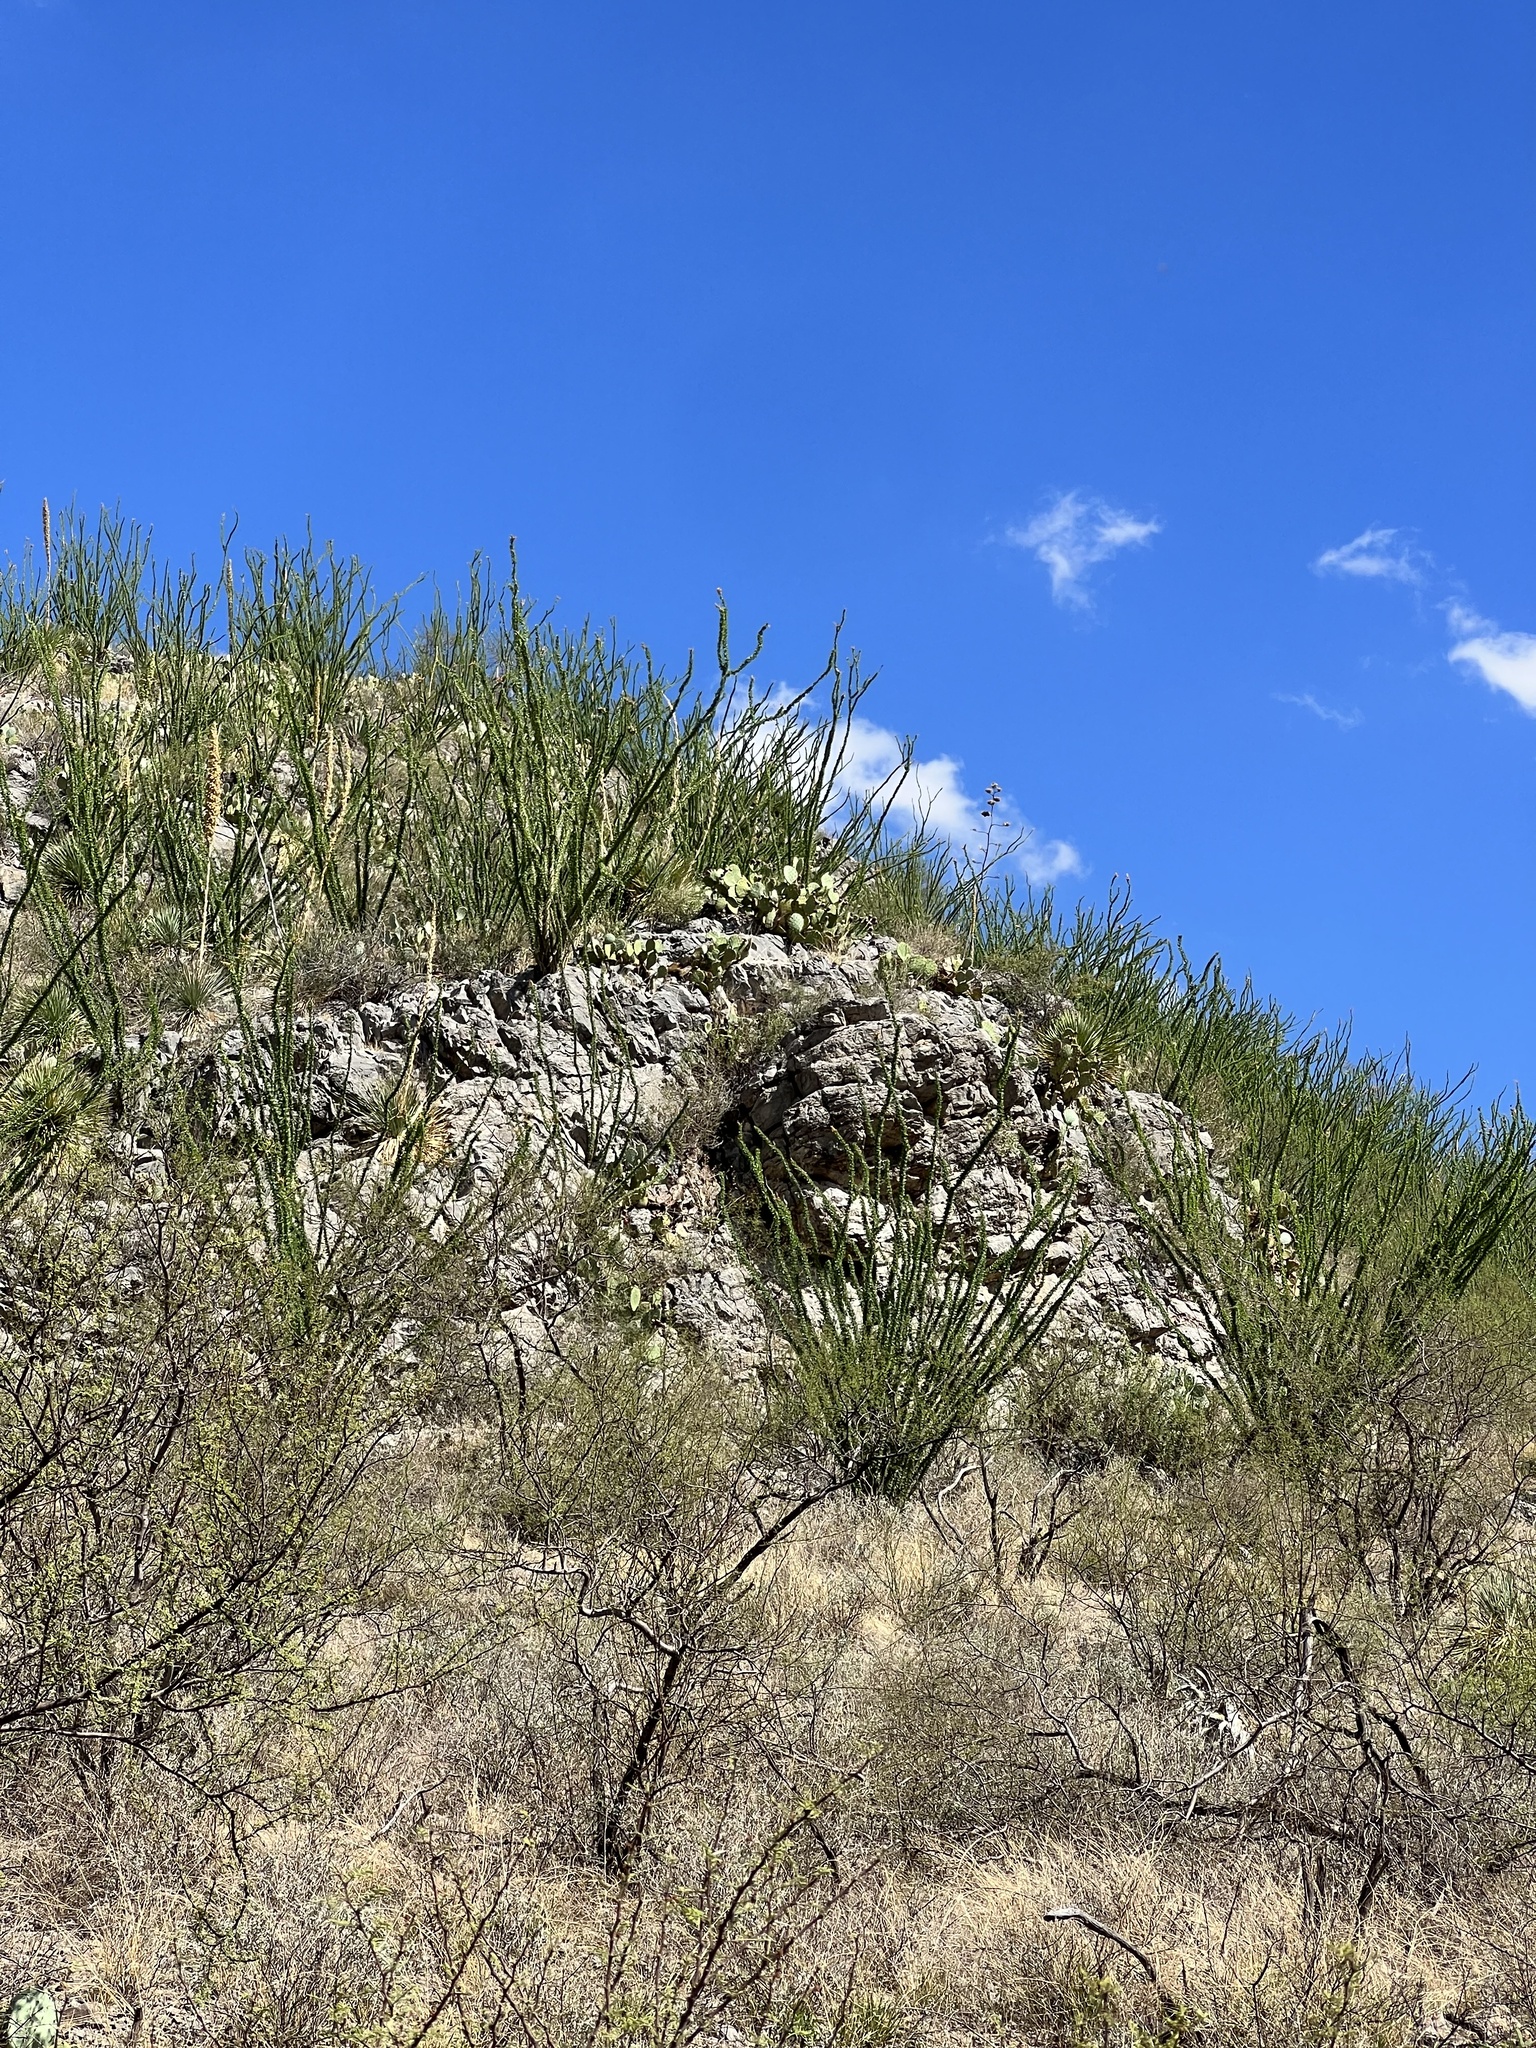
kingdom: Plantae
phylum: Tracheophyta
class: Magnoliopsida
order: Ericales
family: Fouquieriaceae
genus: Fouquieria
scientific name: Fouquieria splendens
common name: Vine-cactus
